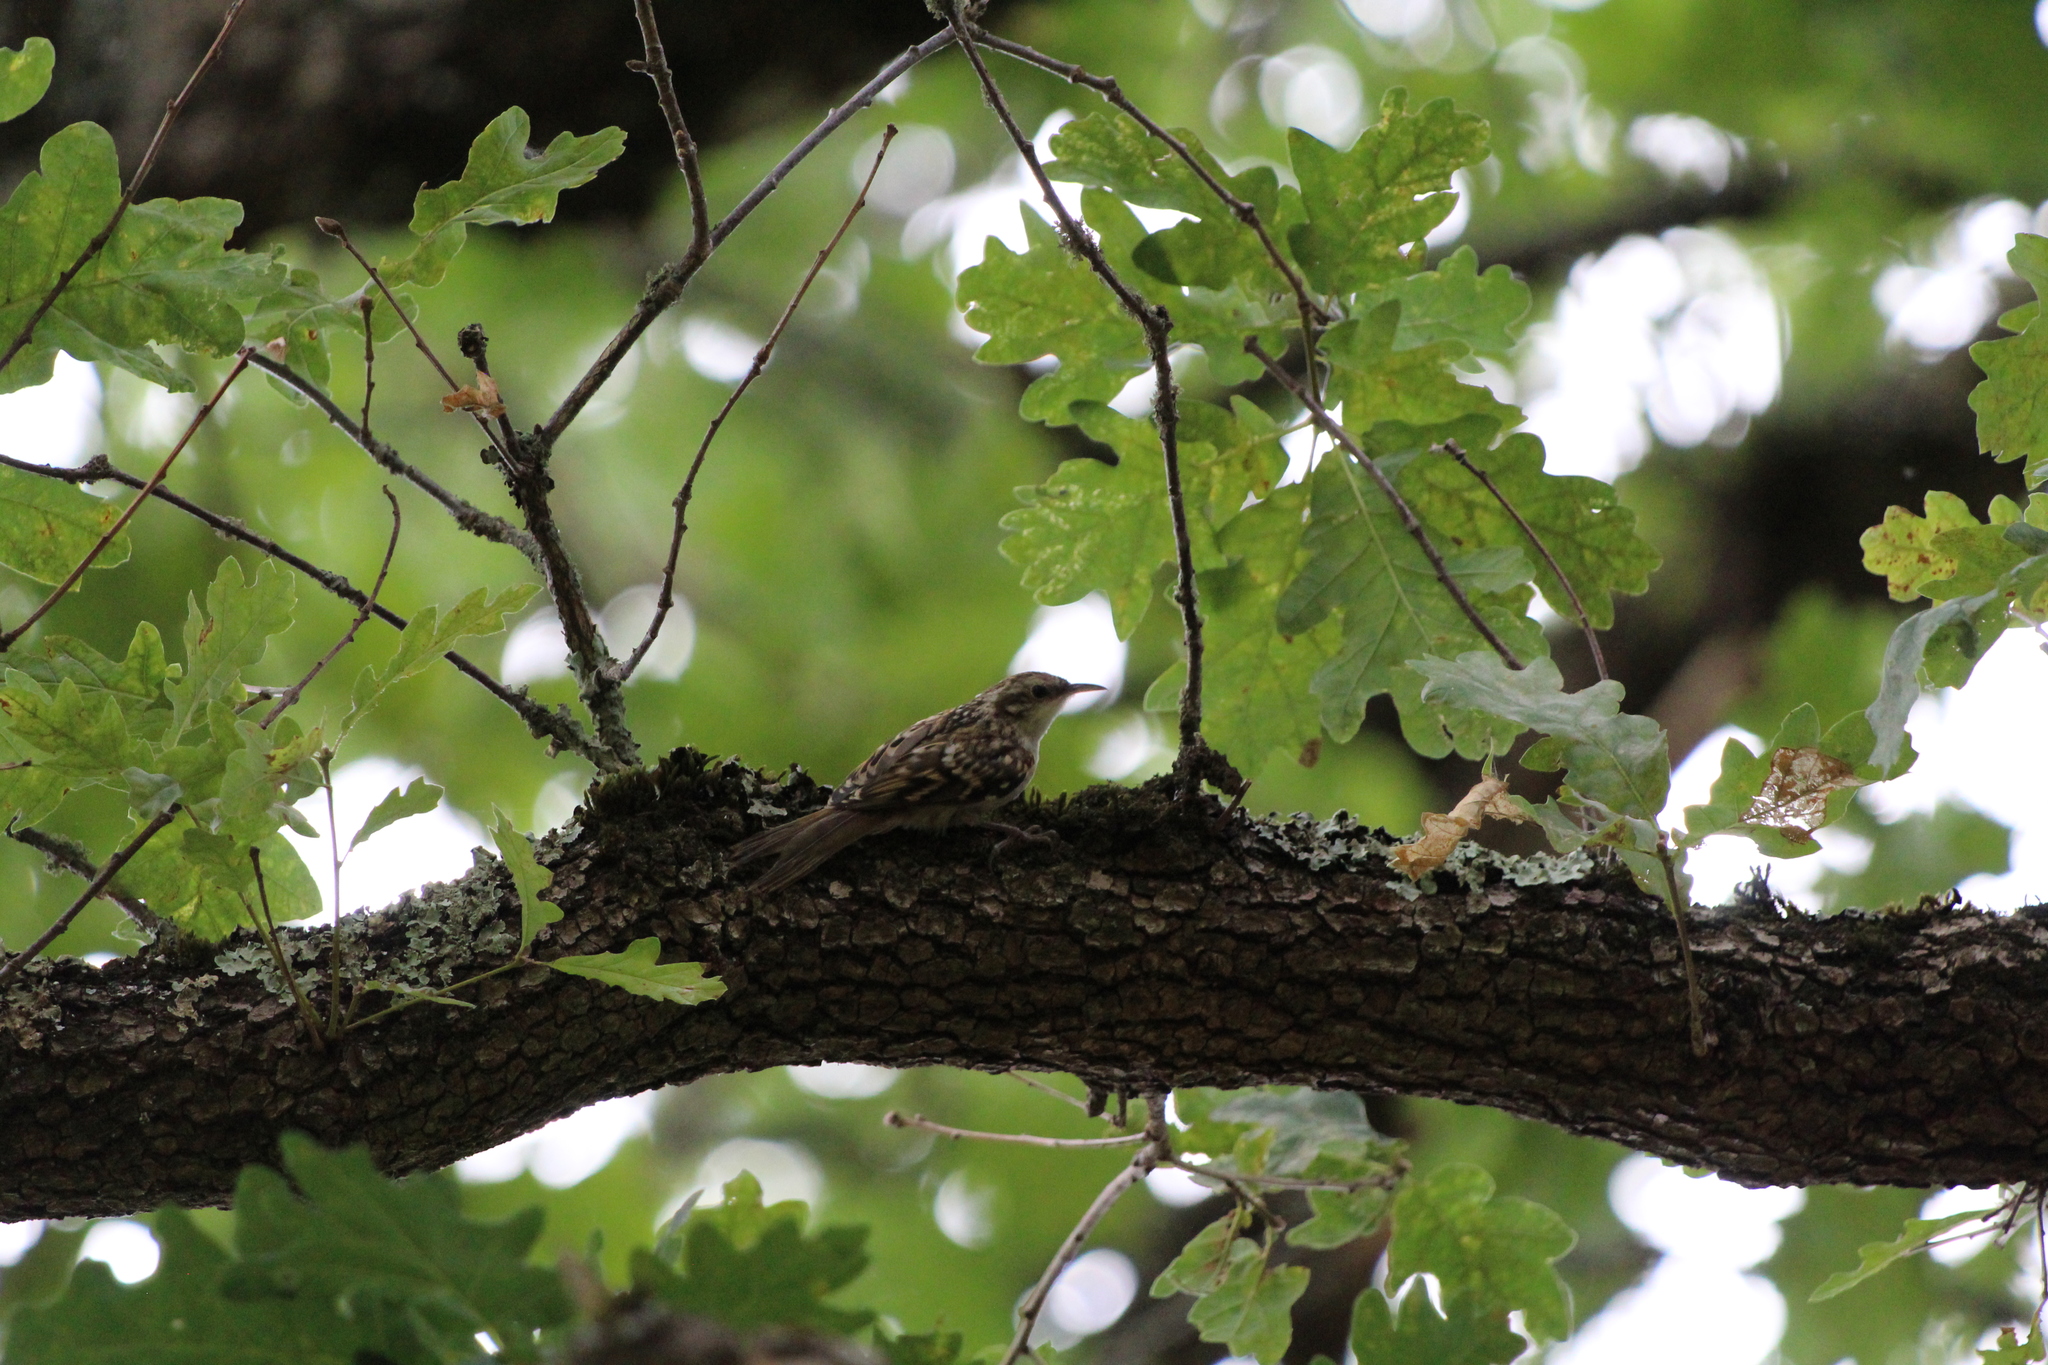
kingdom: Animalia
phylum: Chordata
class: Aves
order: Passeriformes
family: Certhiidae
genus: Certhia
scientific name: Certhia brachydactyla
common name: Short-toed treecreeper
